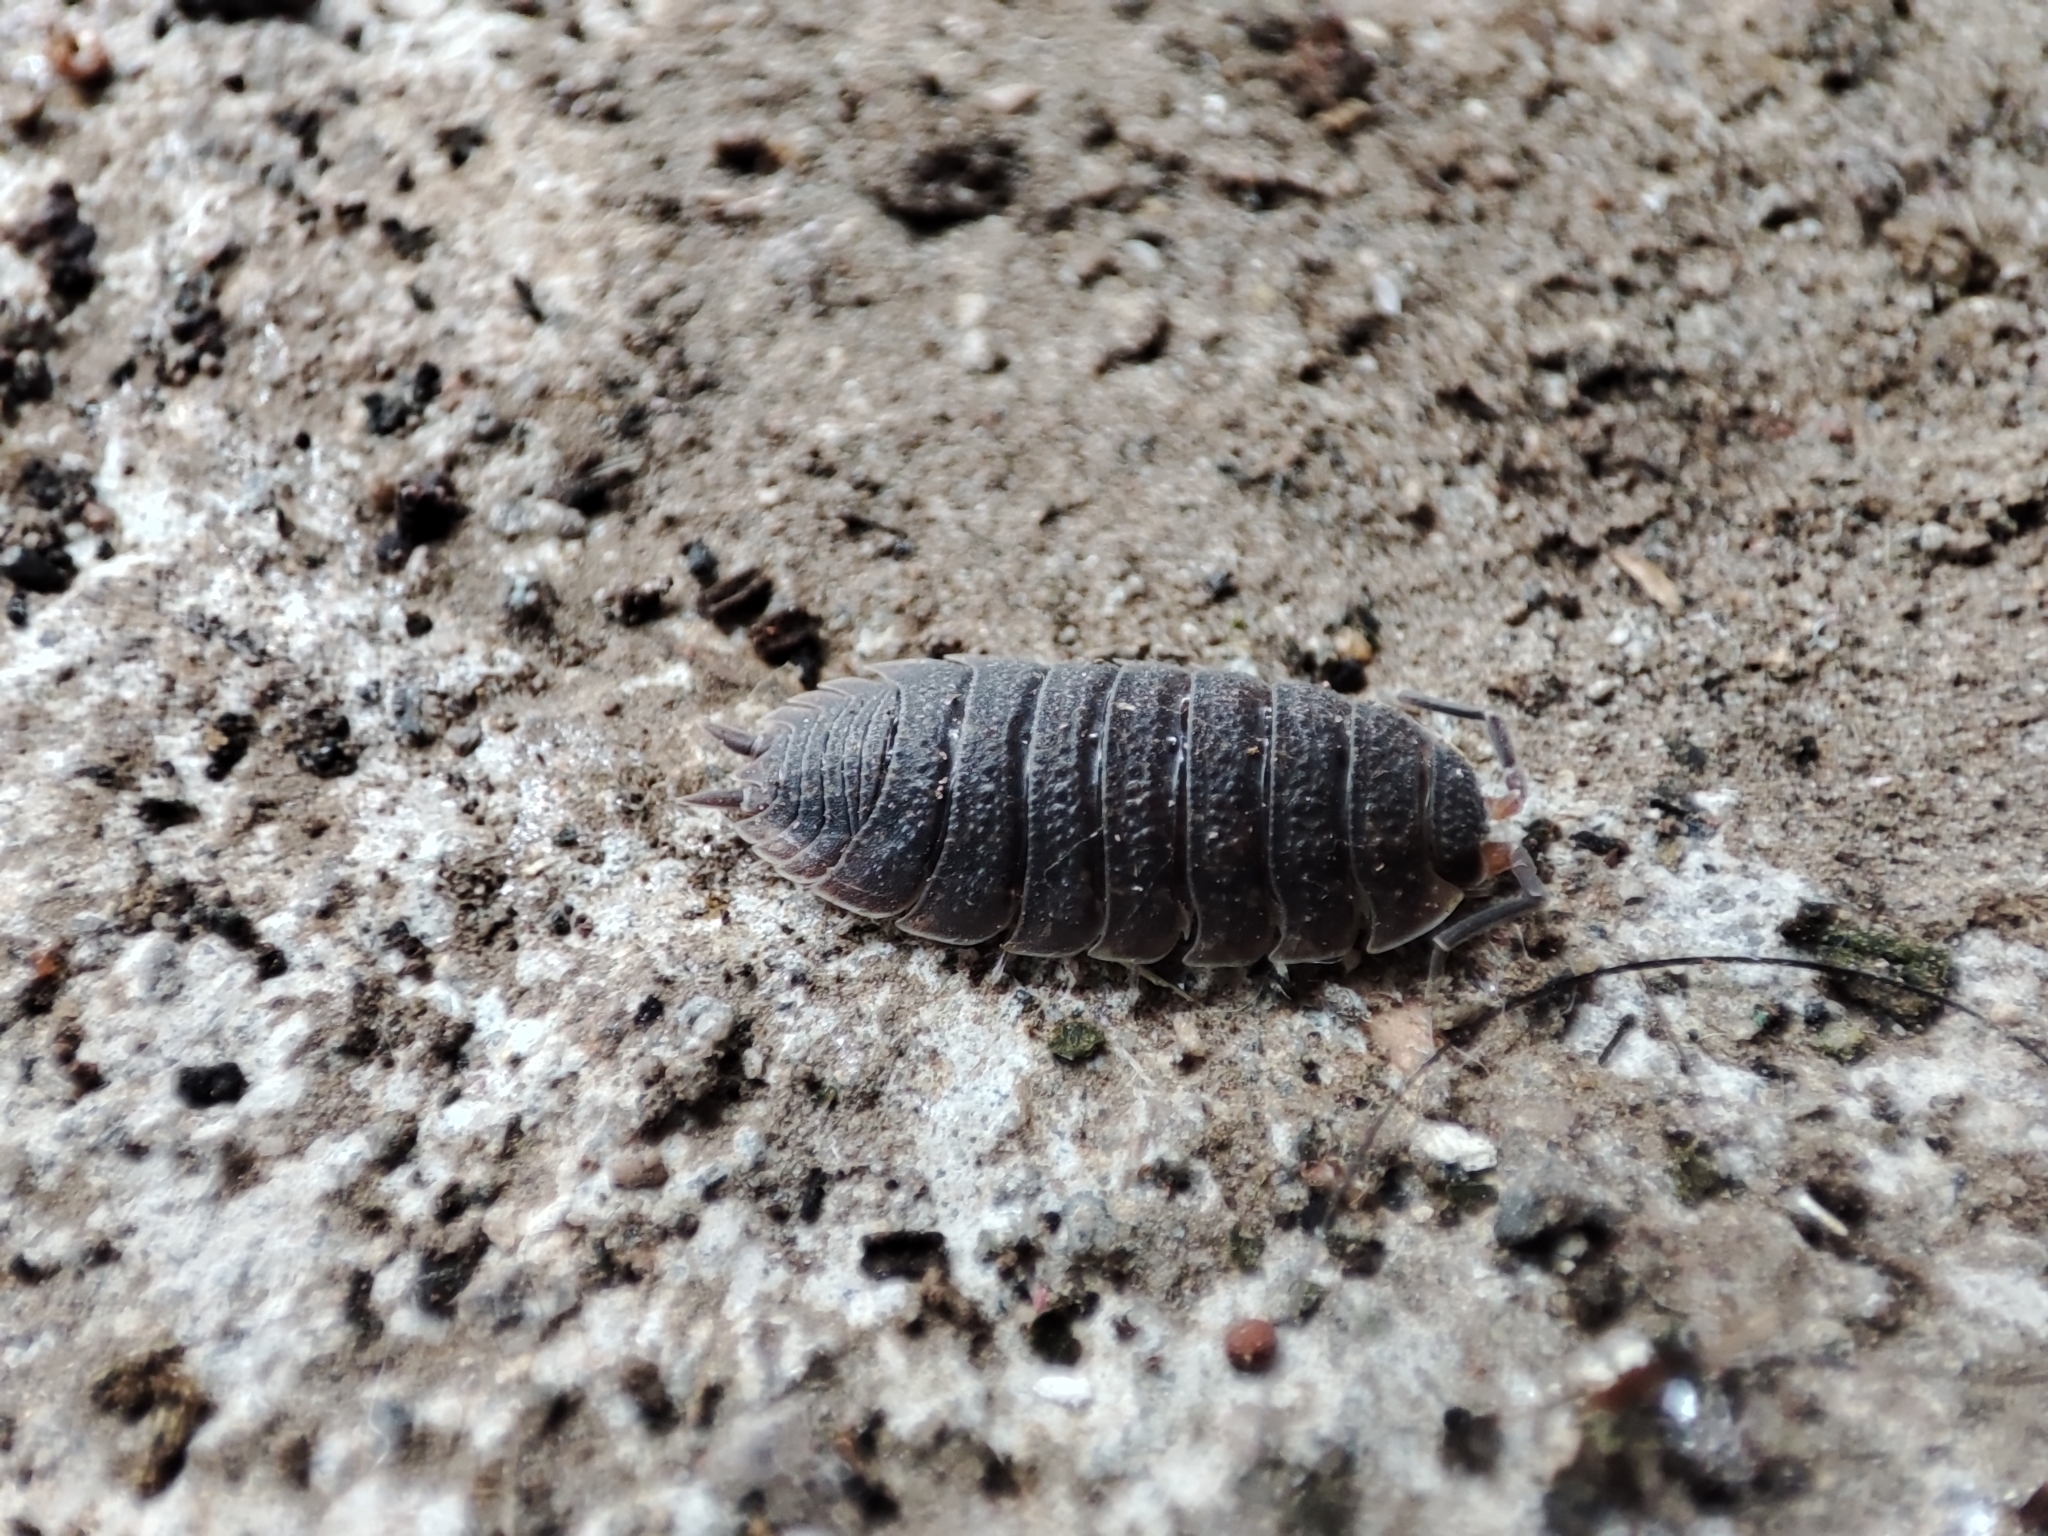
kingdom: Animalia
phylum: Arthropoda
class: Malacostraca
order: Isopoda
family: Porcellionidae
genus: Porcellio
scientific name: Porcellio scaber
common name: Common rough woodlouse
